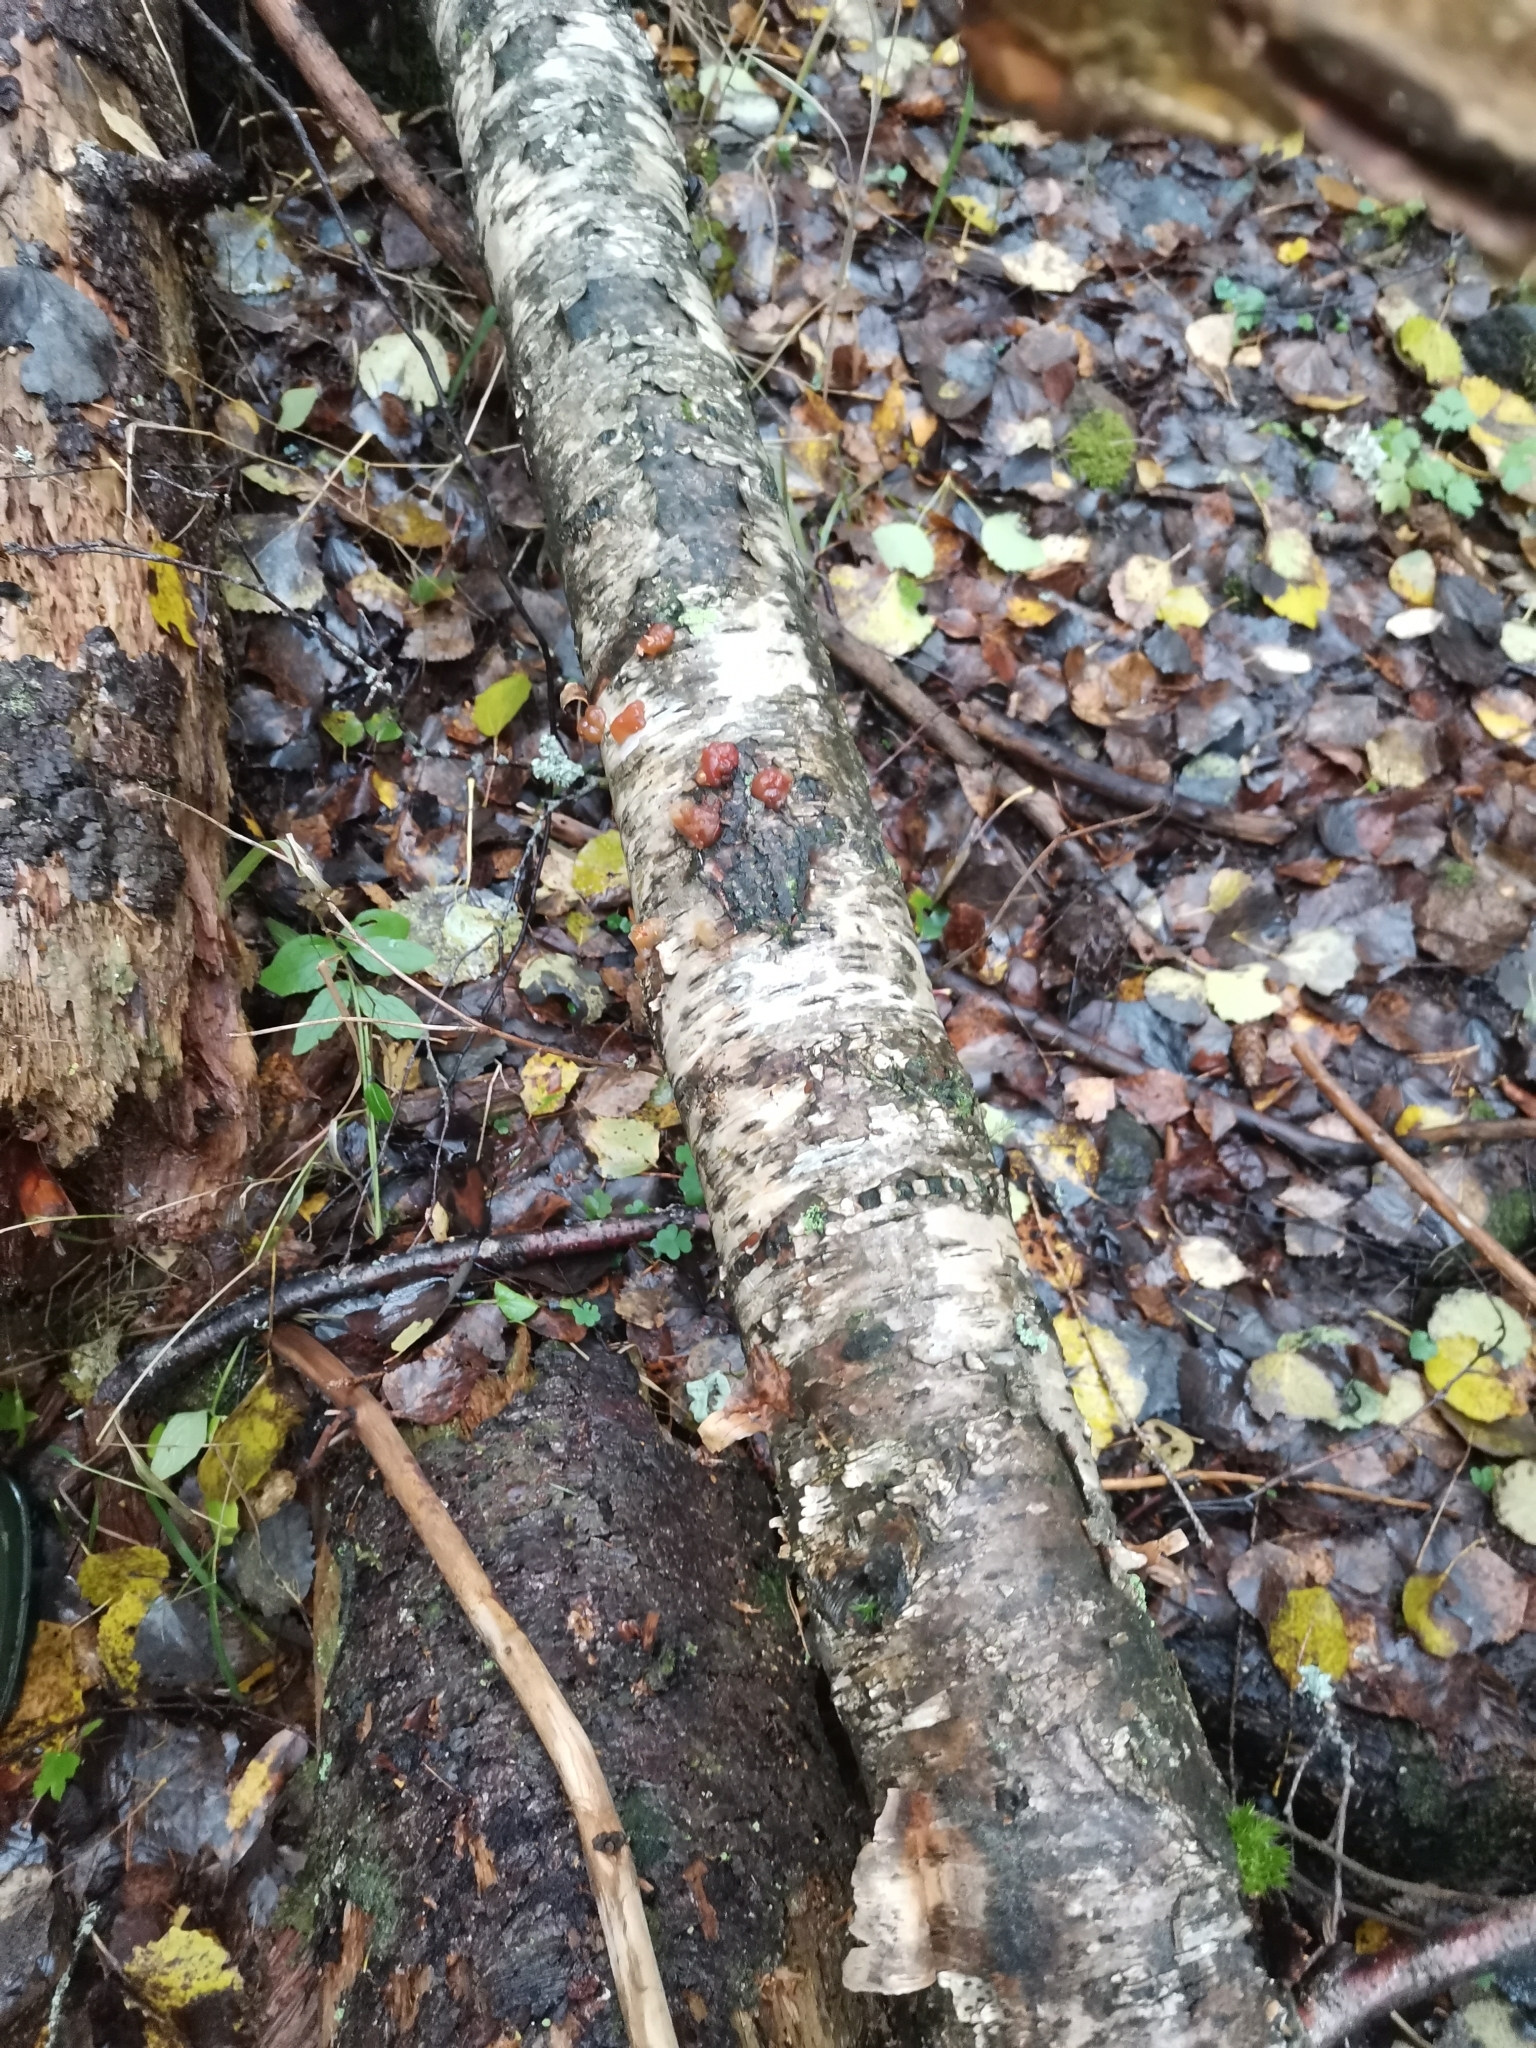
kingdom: Fungi
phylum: Basidiomycota
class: Agaricomycetes
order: Auriculariales
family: Auriculariaceae
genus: Exidia
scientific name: Exidia cartilaginea
